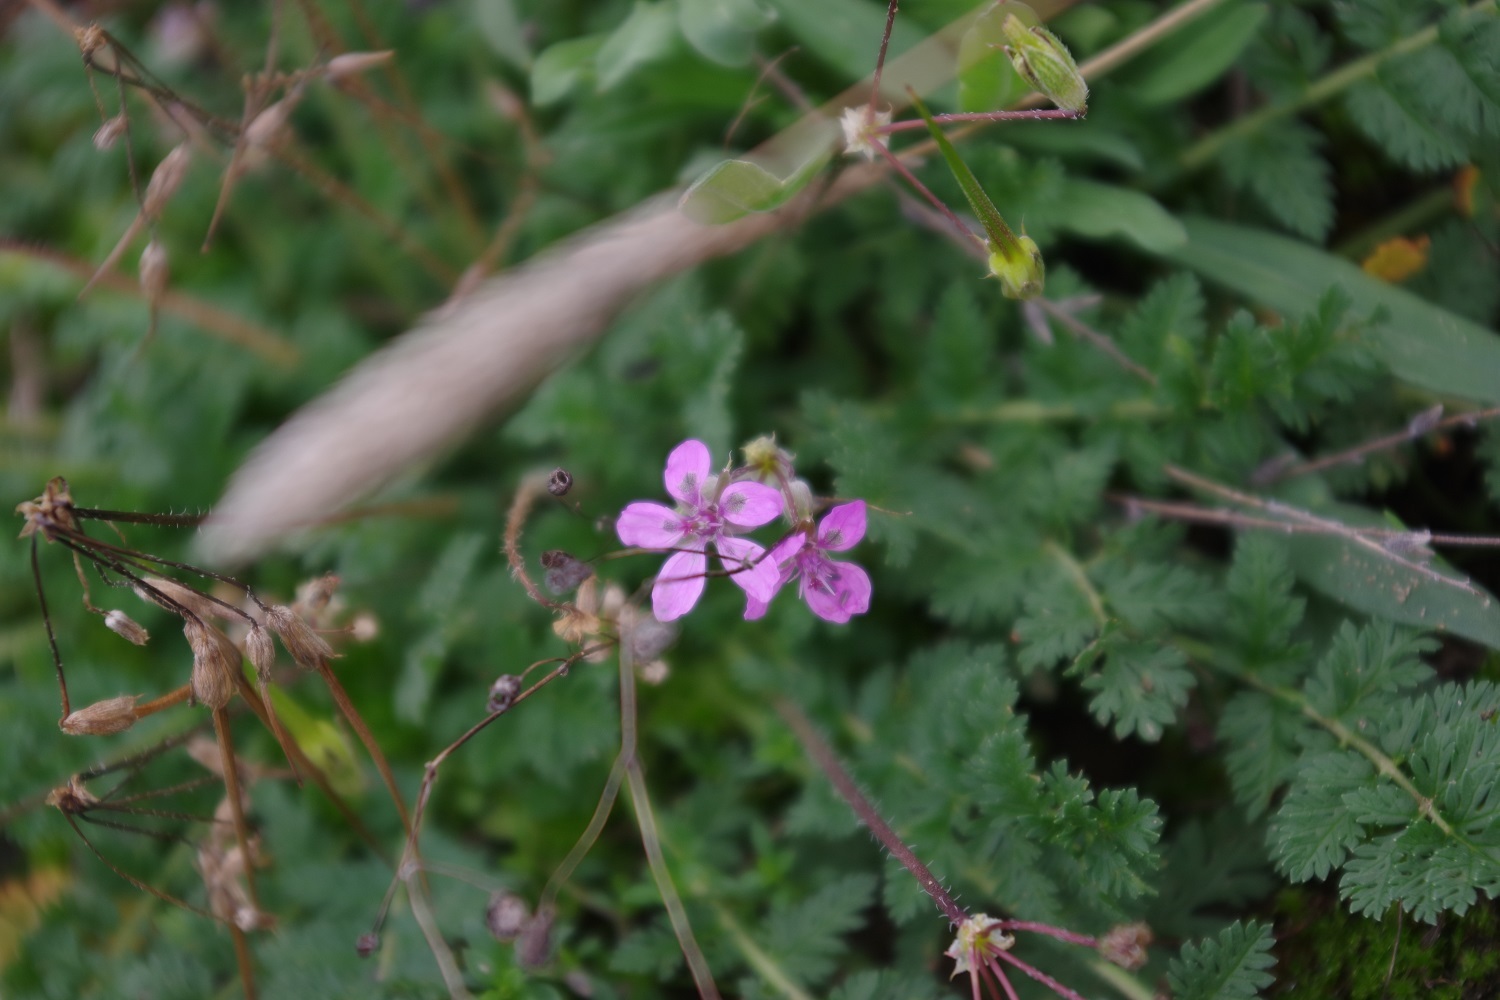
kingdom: Plantae
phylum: Tracheophyta
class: Magnoliopsida
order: Geraniales
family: Geraniaceae
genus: Erodium
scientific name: Erodium cicutarium
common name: Common stork's-bill
